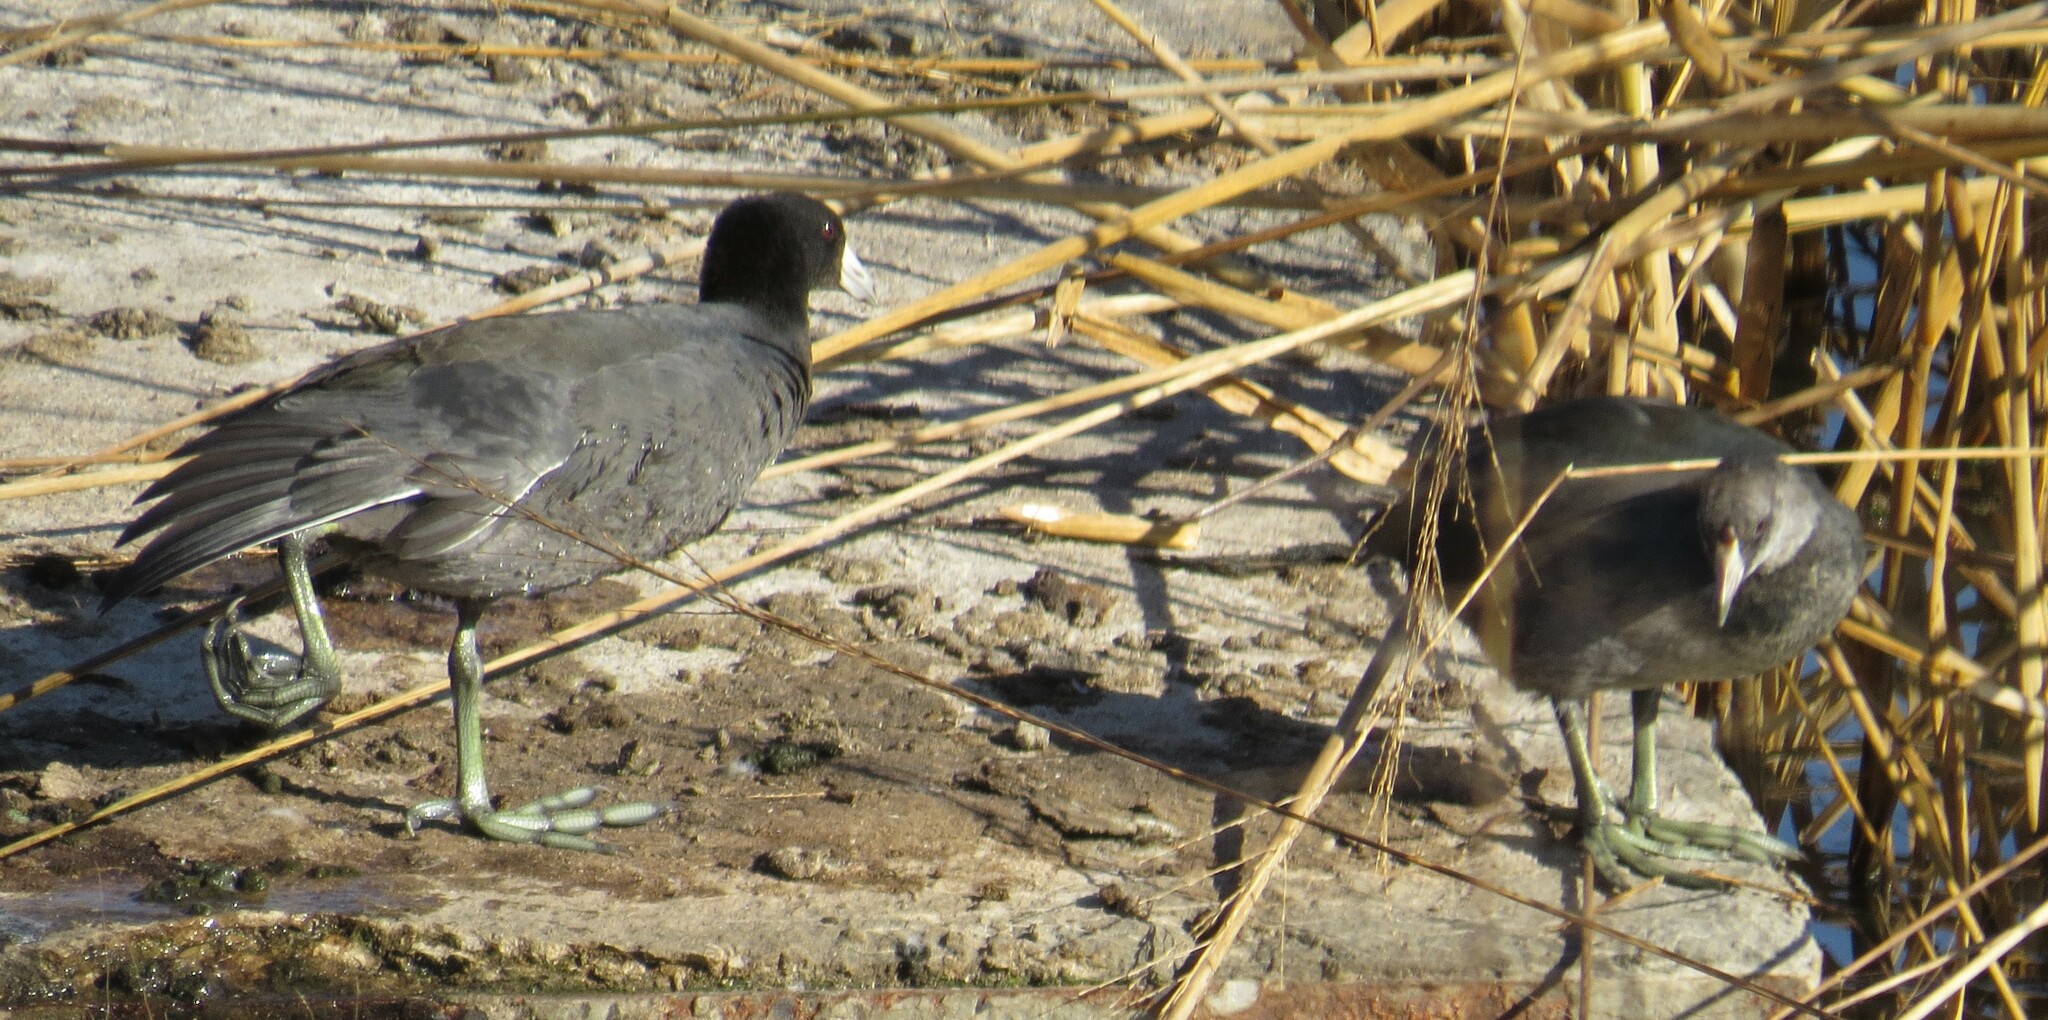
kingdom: Animalia
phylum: Chordata
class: Aves
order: Gruiformes
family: Rallidae
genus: Fulica
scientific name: Fulica americana
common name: American coot
